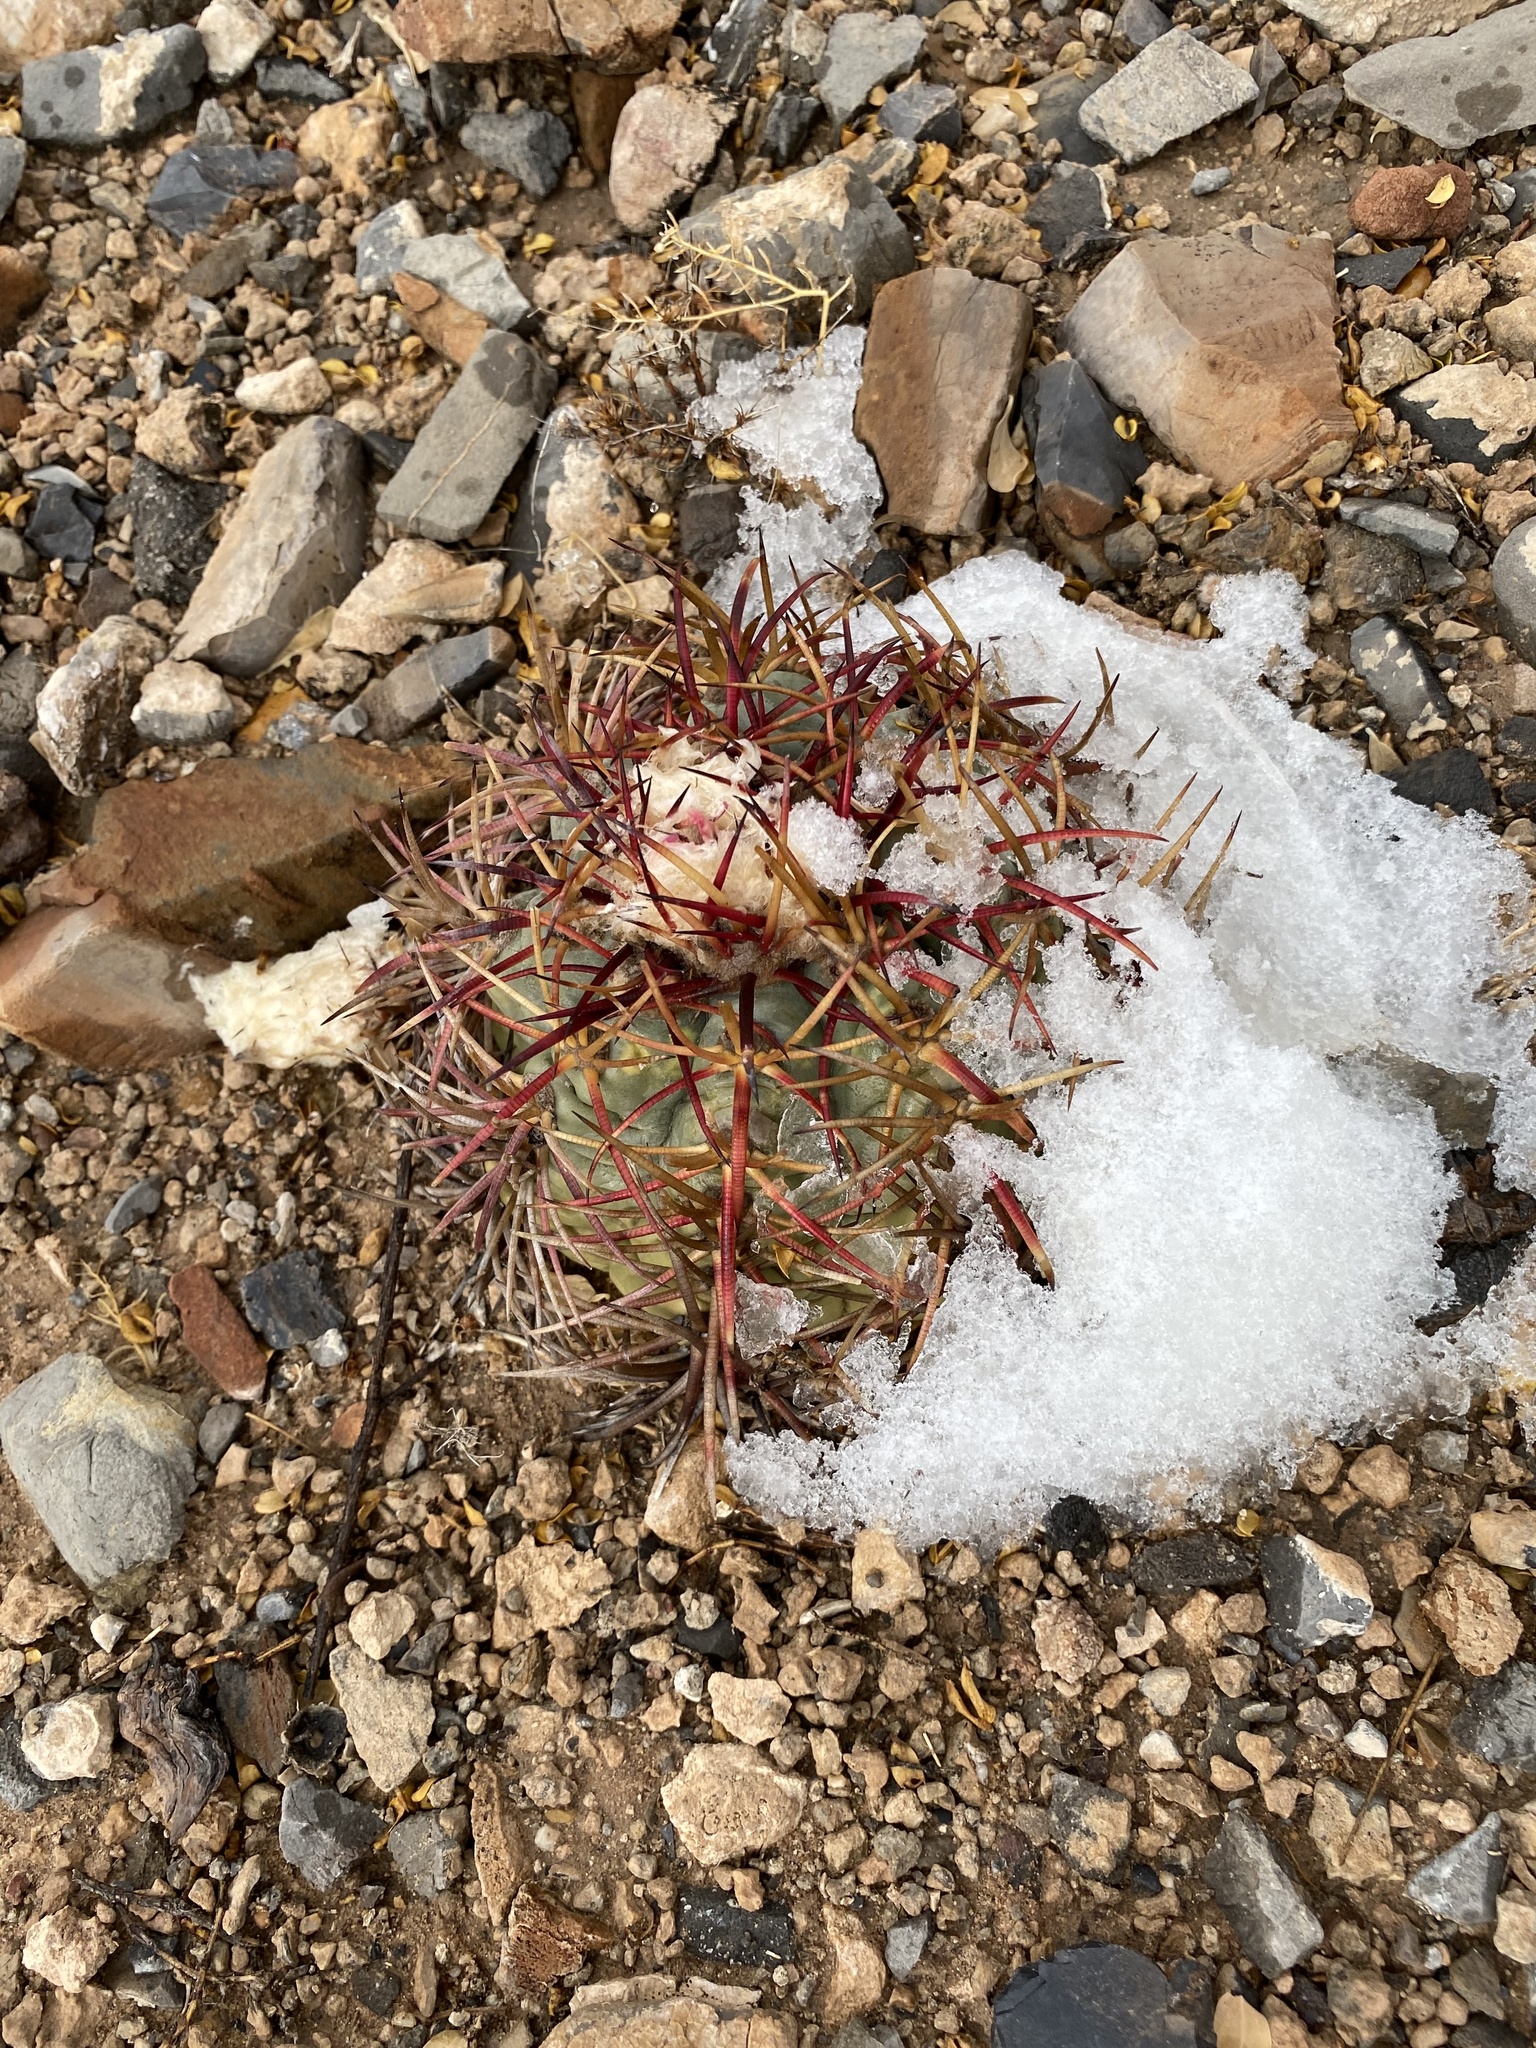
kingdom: Plantae
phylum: Tracheophyta
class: Magnoliopsida
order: Caryophyllales
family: Cactaceae
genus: Echinocactus
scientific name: Echinocactus horizonthalonius
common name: Devilshead
